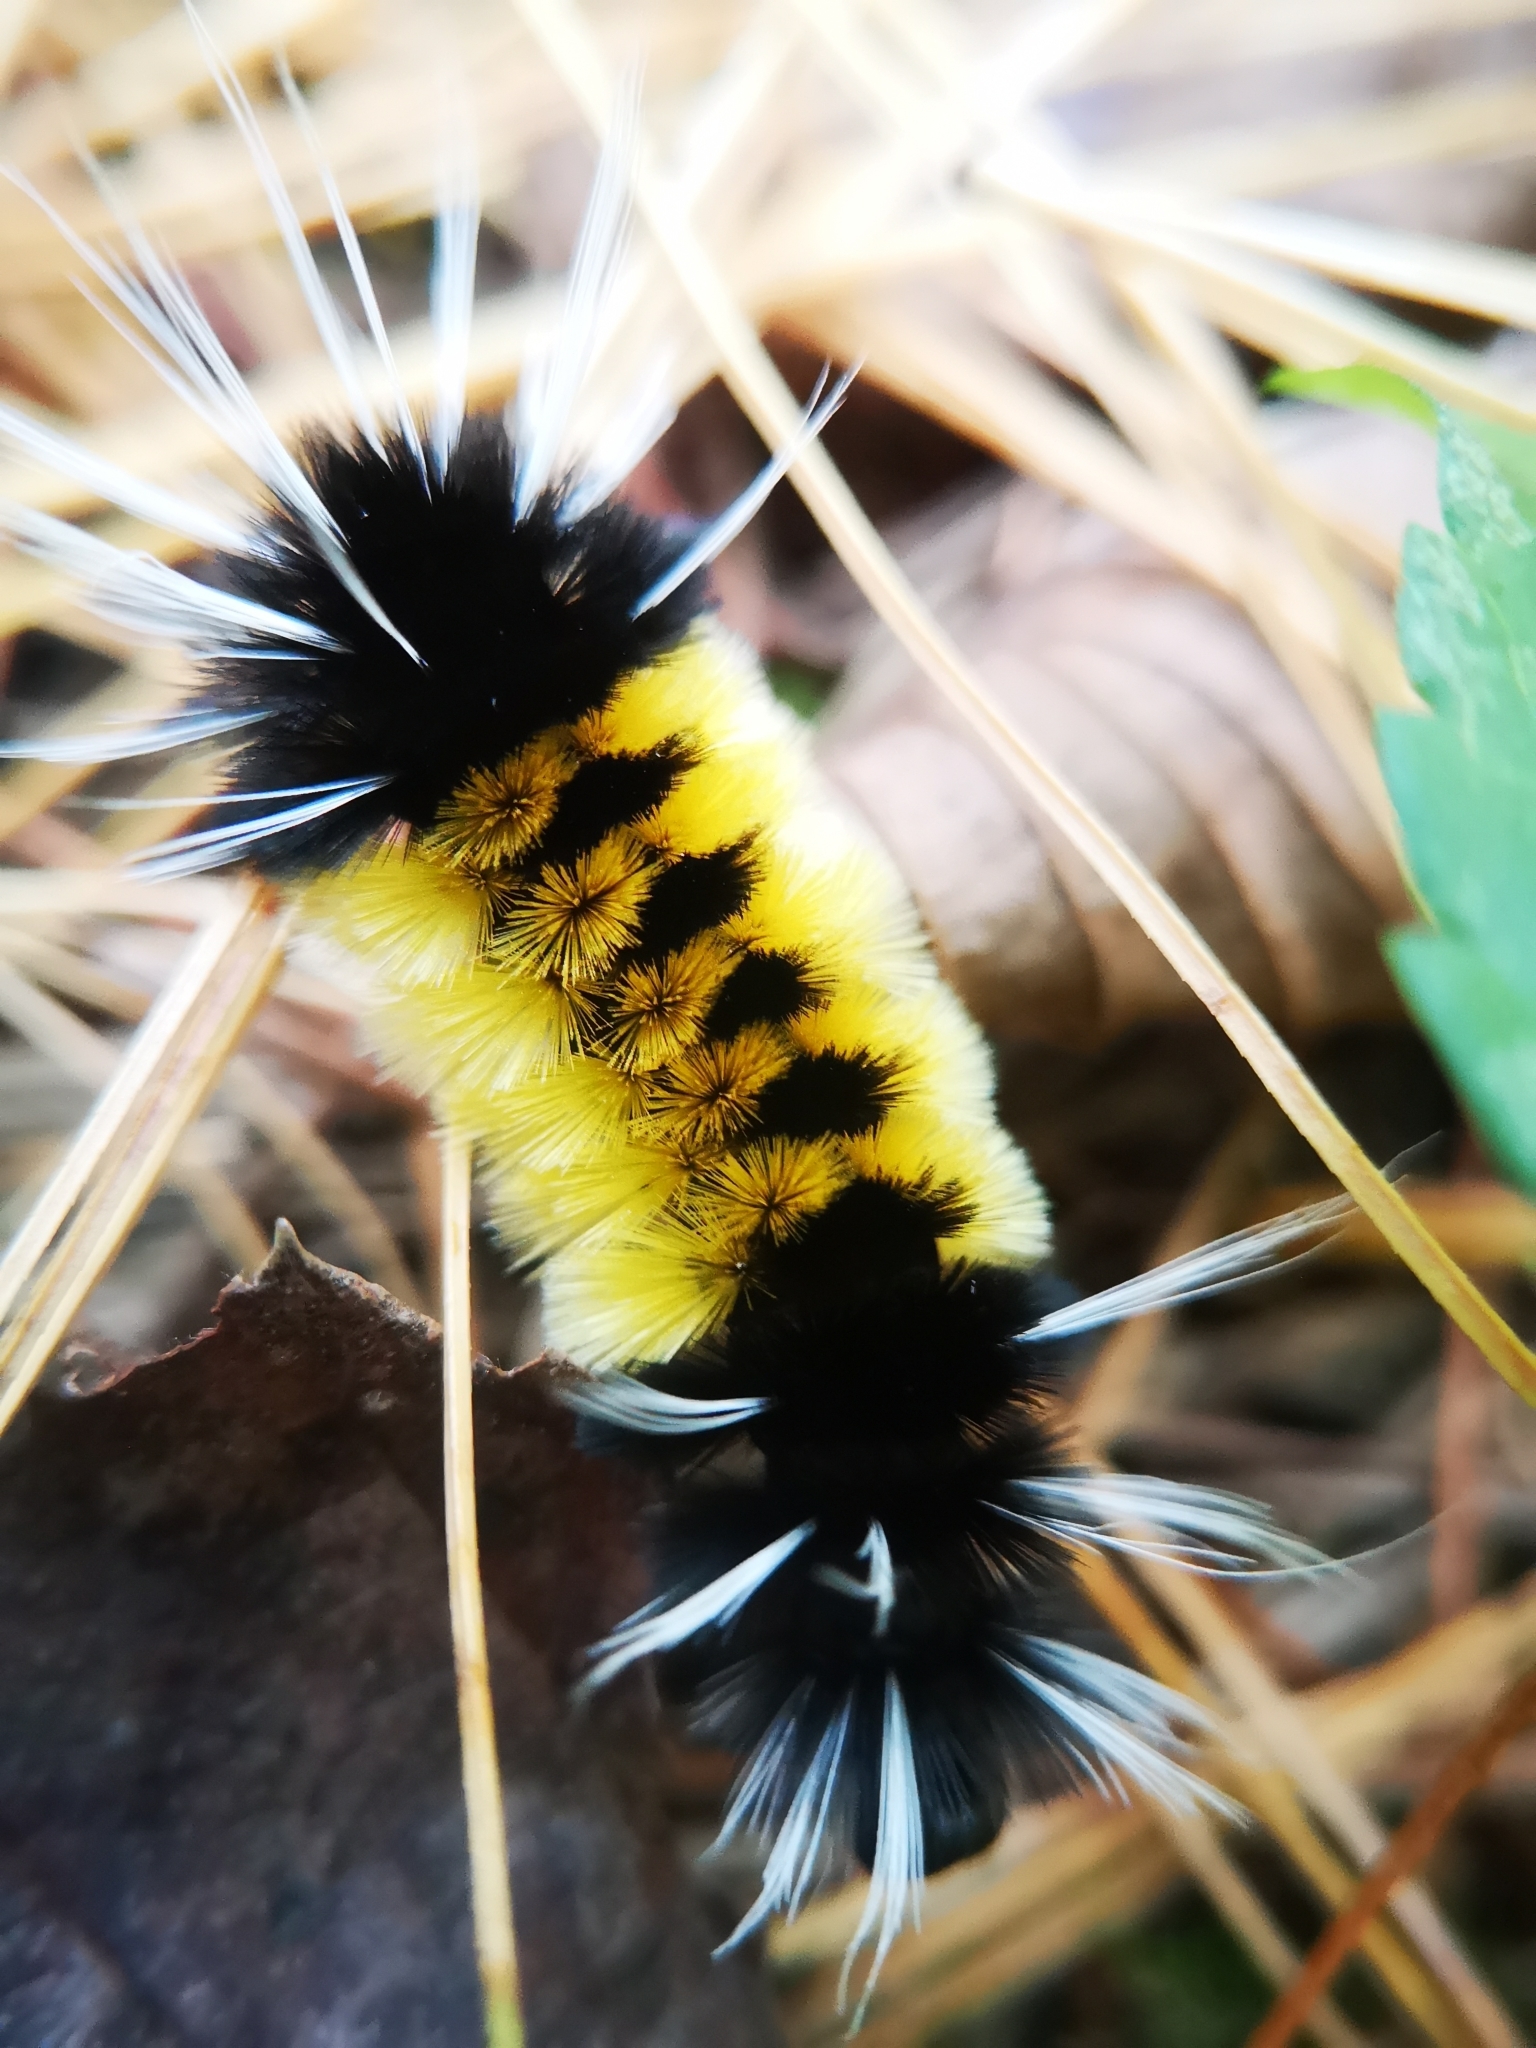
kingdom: Animalia
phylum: Arthropoda
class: Insecta
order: Lepidoptera
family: Erebidae
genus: Lophocampa
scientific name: Lophocampa maculata
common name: Spotted tussock moth
